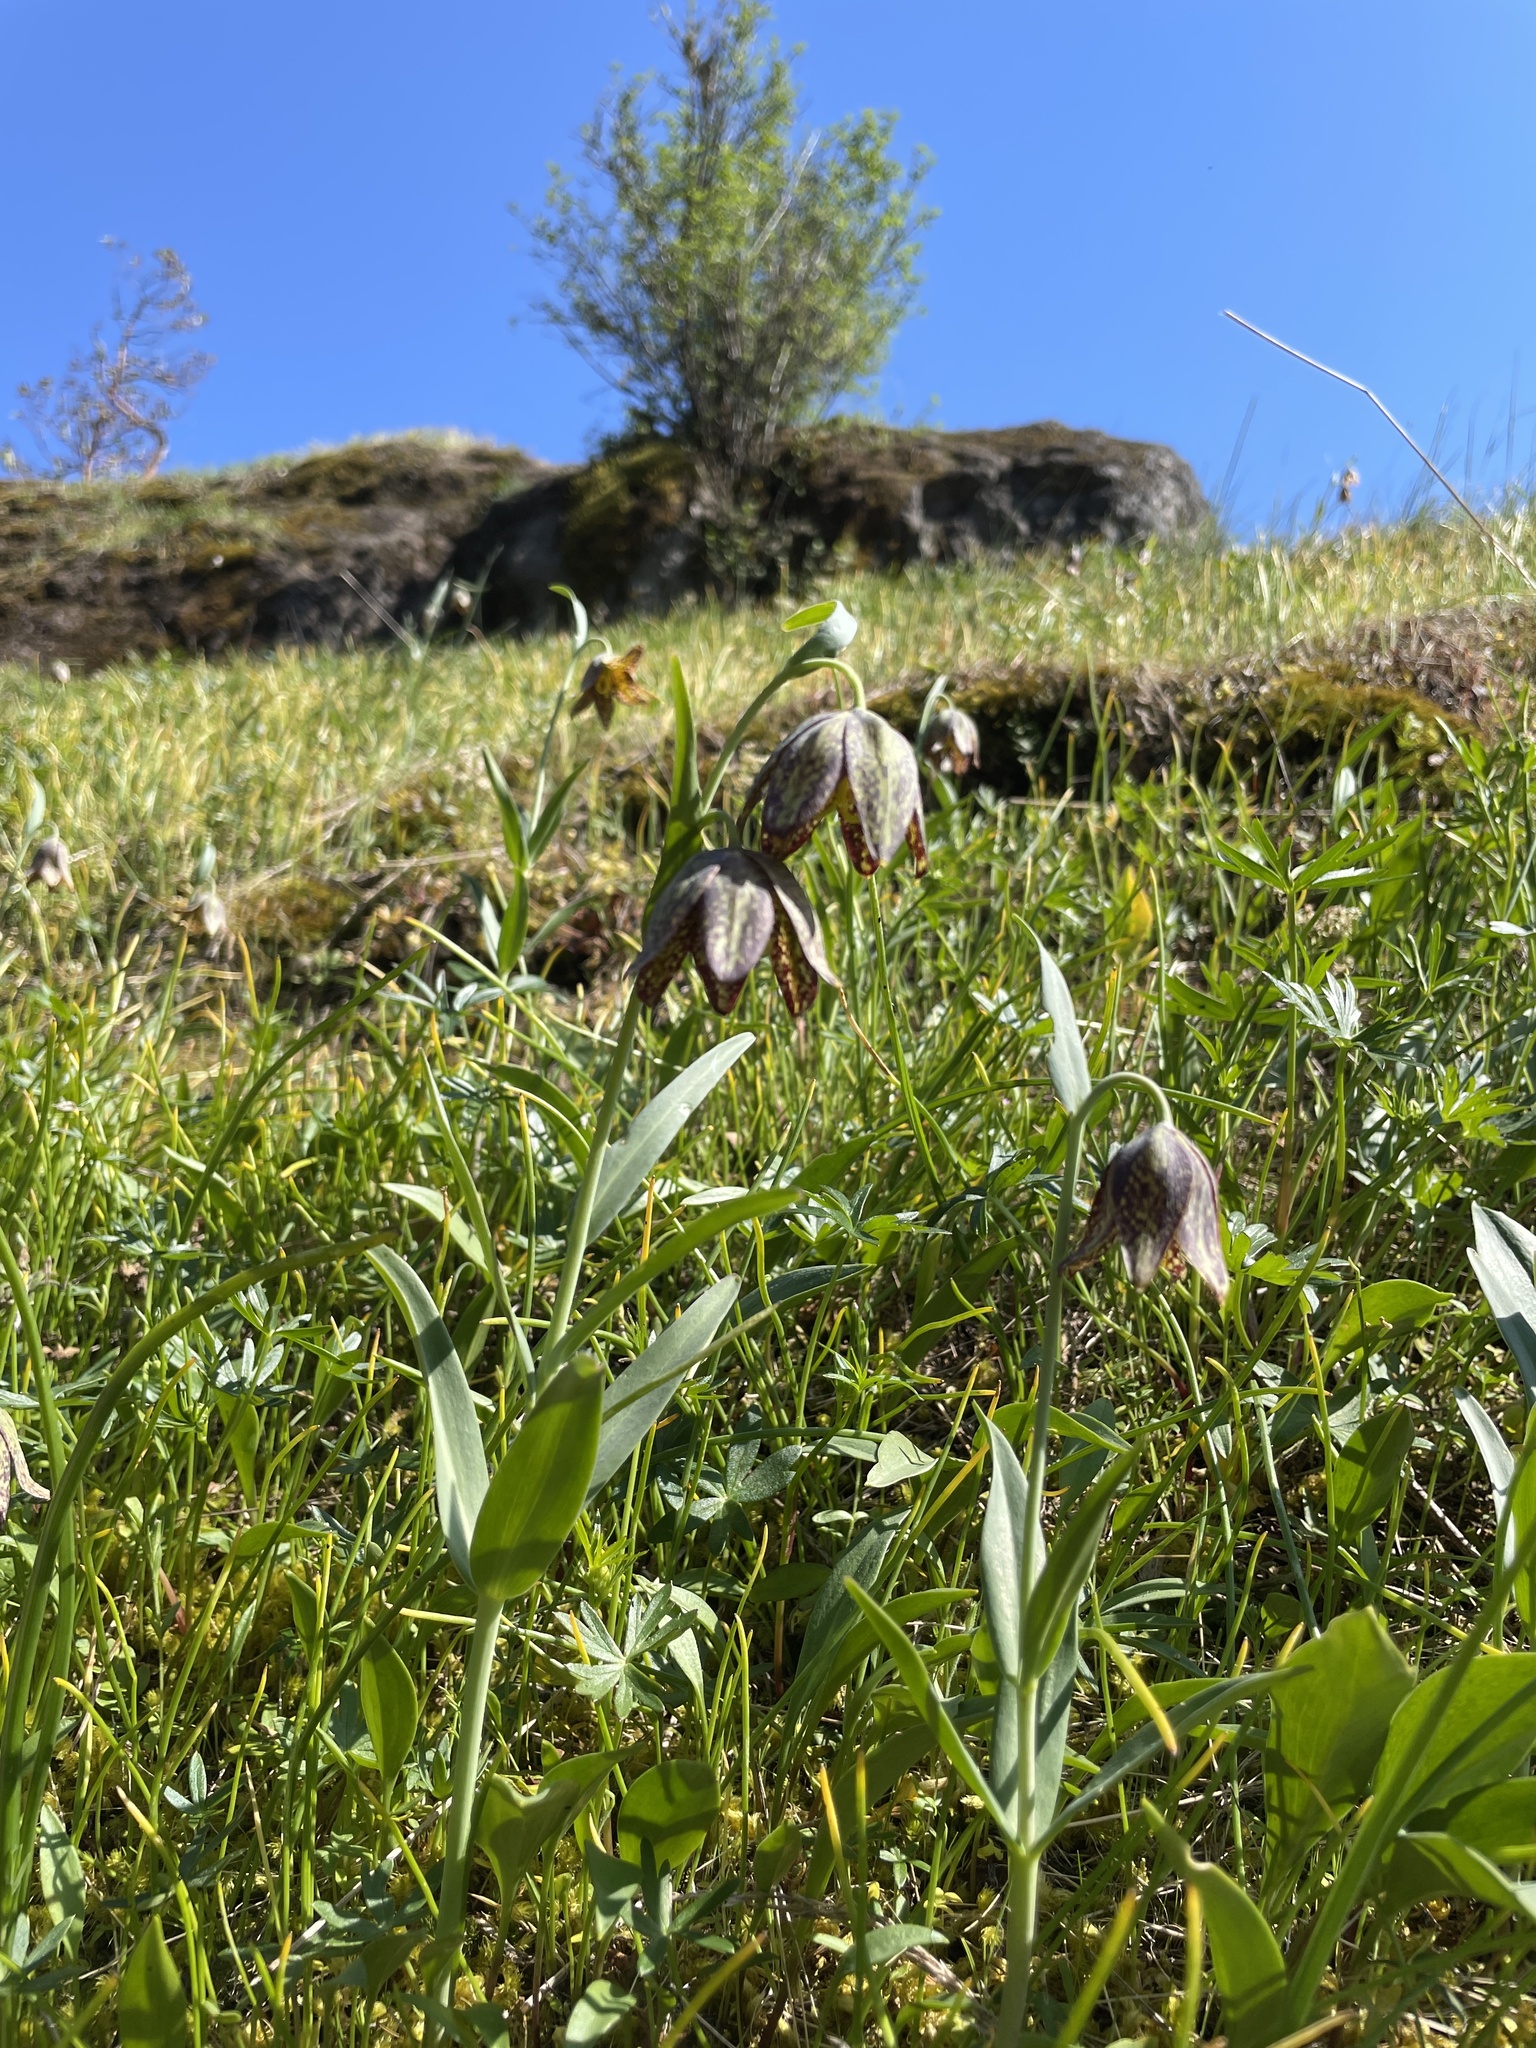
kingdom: Plantae
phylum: Tracheophyta
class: Liliopsida
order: Liliales
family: Liliaceae
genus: Fritillaria
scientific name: Fritillaria affinis
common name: Ojai fritillary
